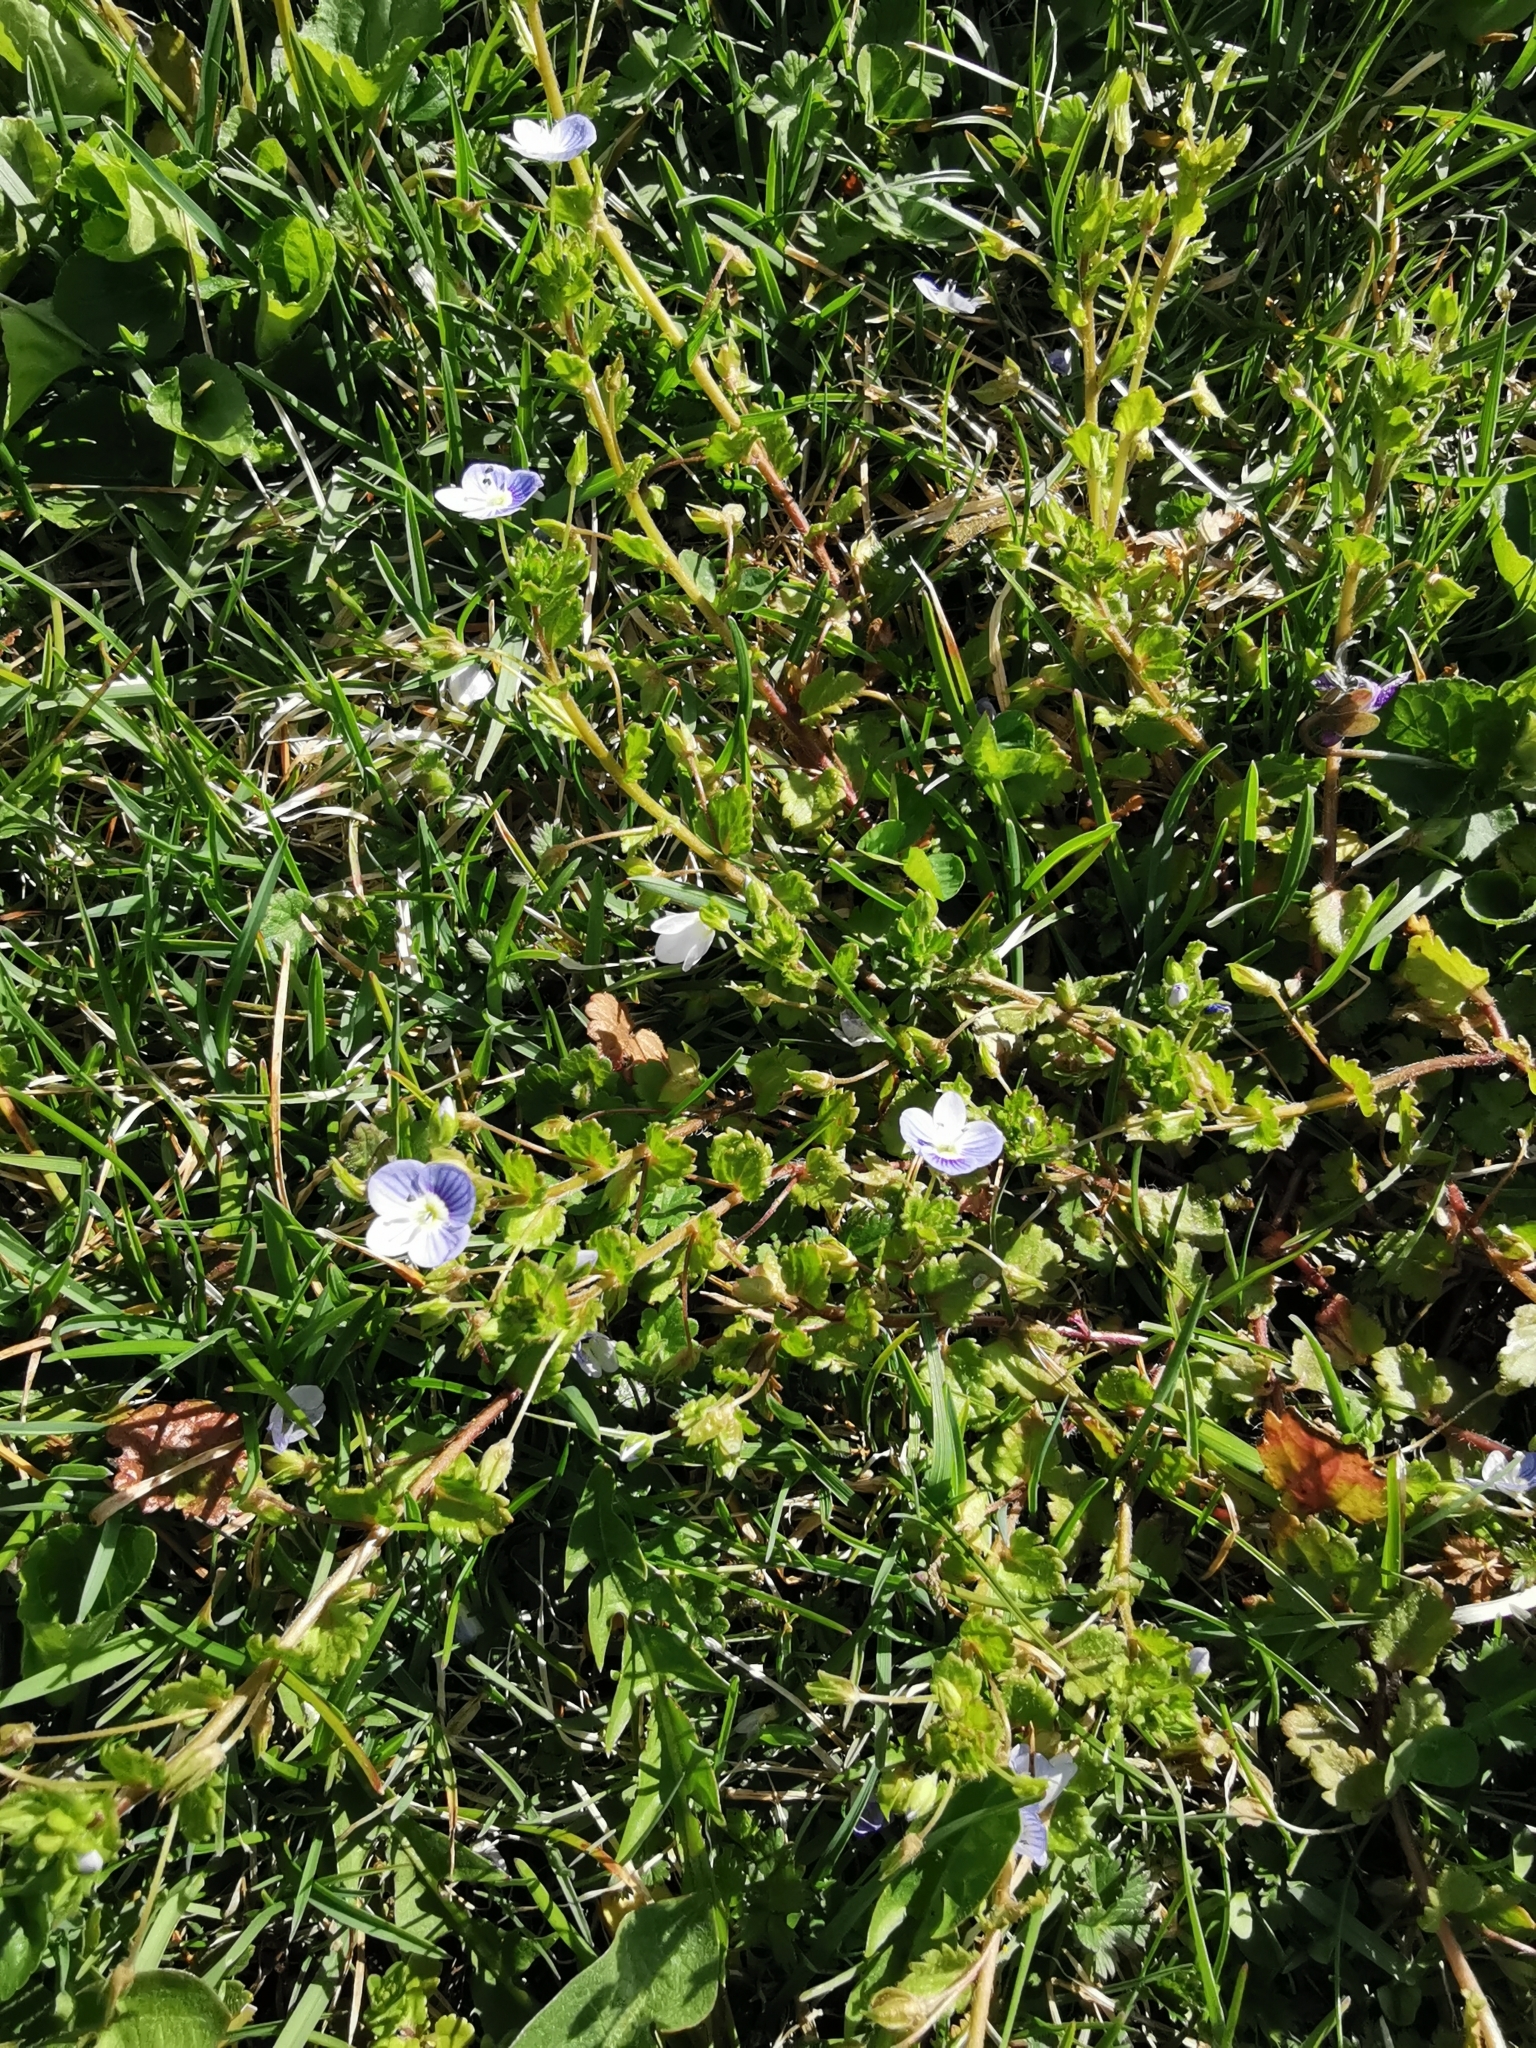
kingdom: Plantae
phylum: Tracheophyta
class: Magnoliopsida
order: Lamiales
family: Plantaginaceae
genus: Veronica
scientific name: Veronica persica
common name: Common field-speedwell
